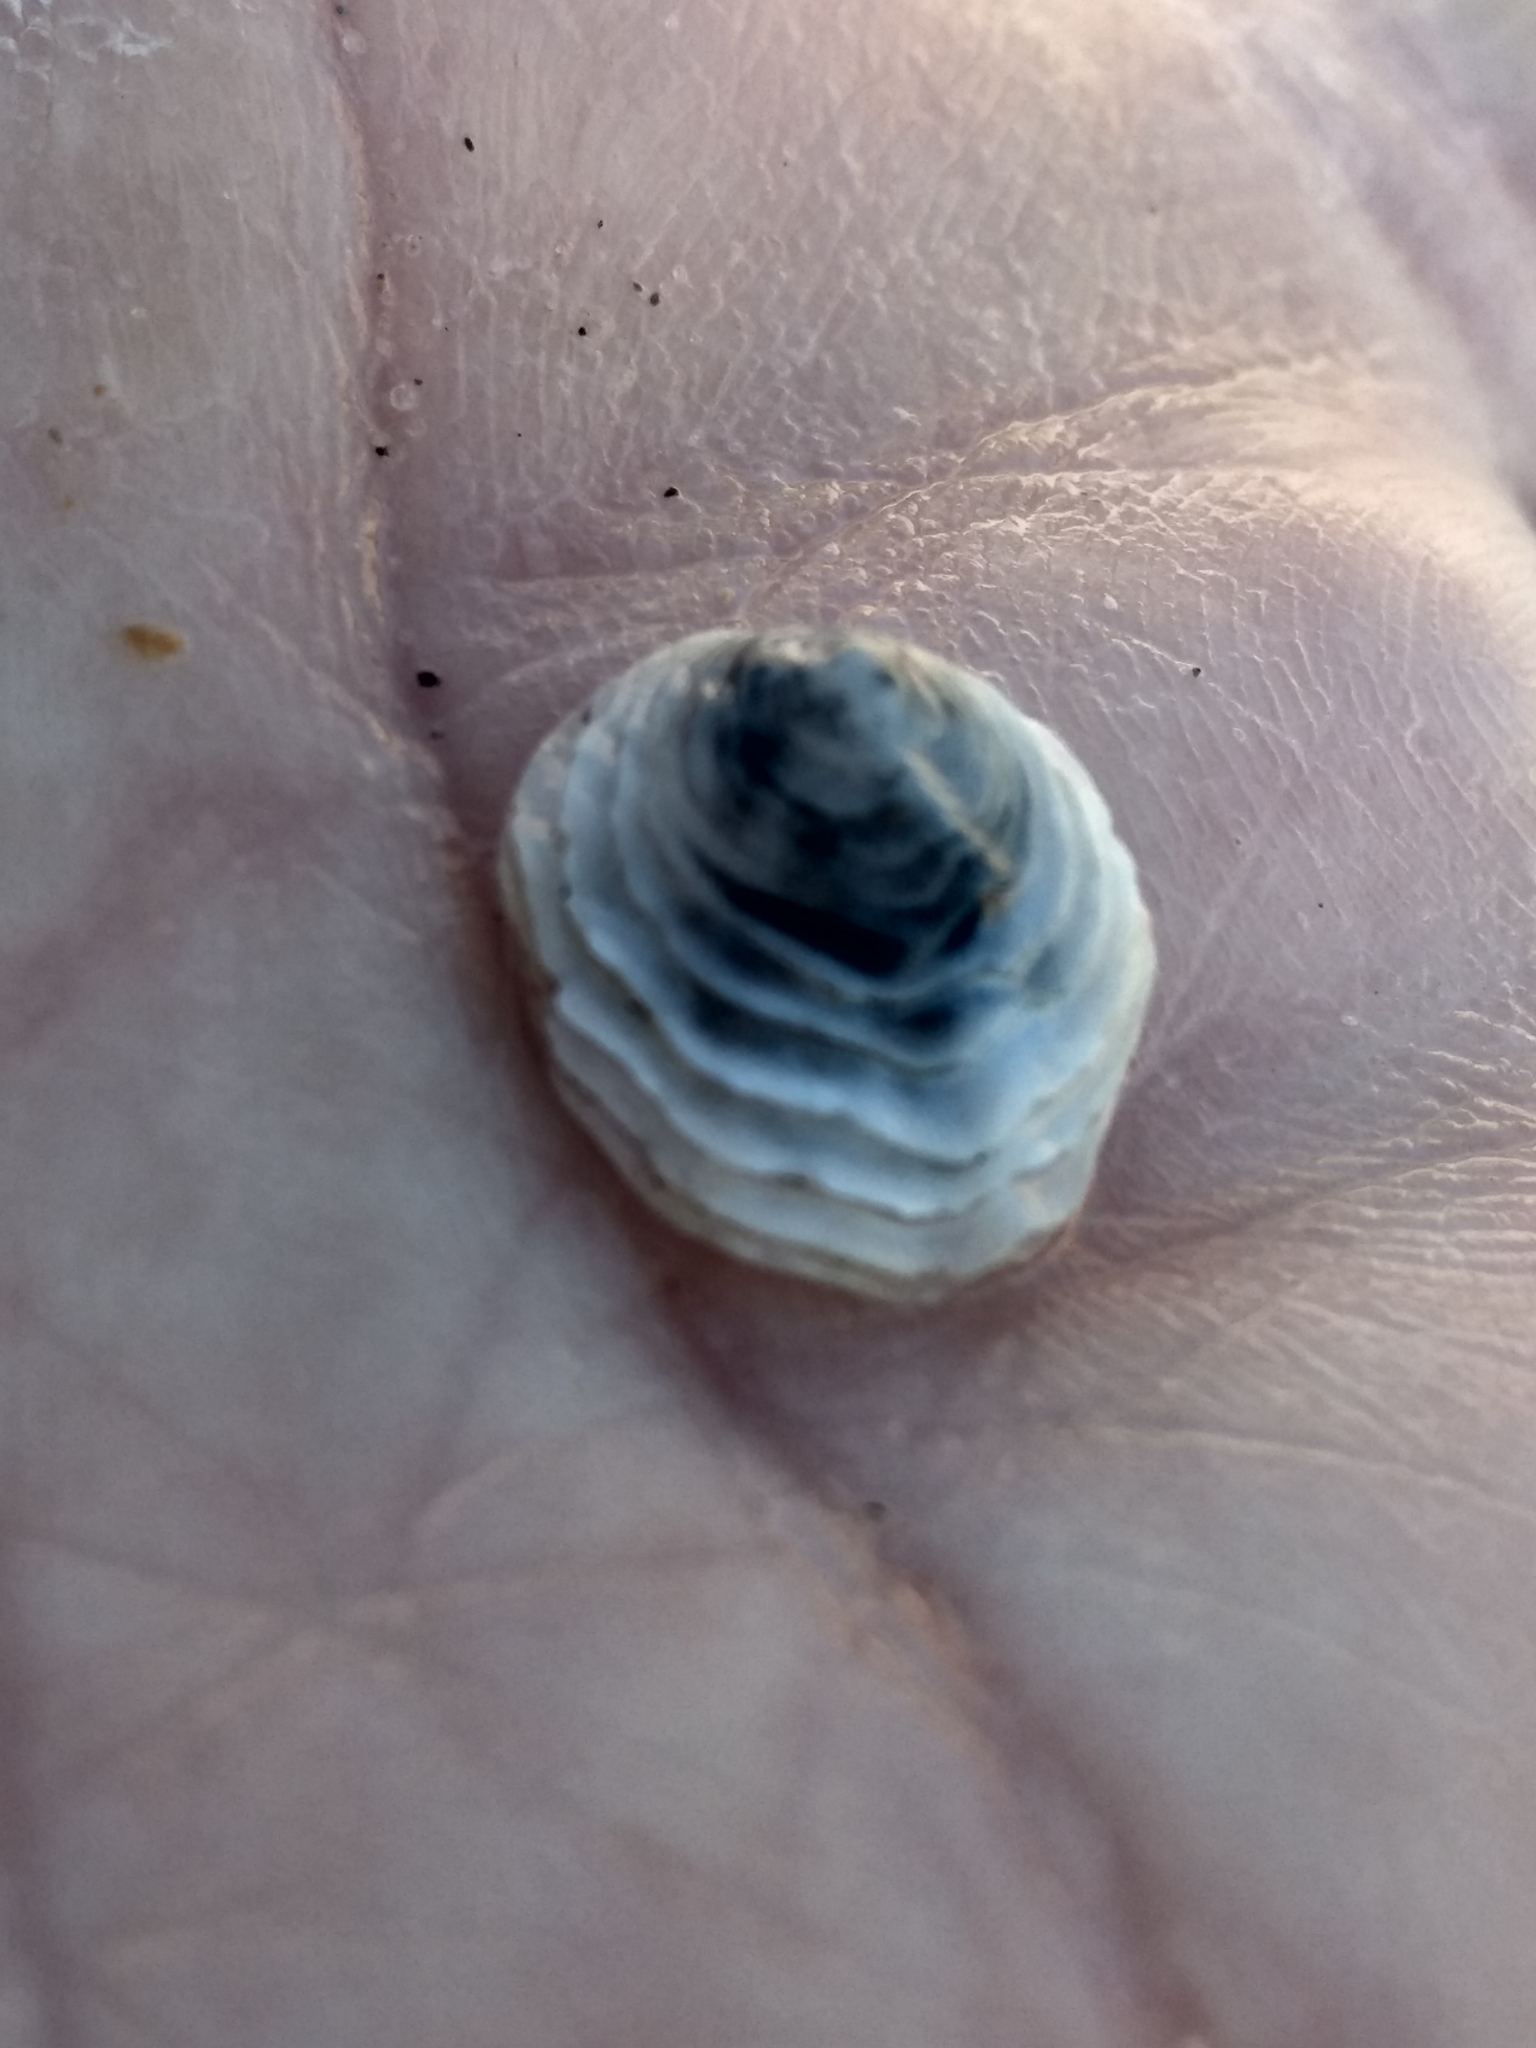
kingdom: Animalia
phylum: Mollusca
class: Gastropoda
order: Littorinimorpha
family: Hipponicidae
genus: Hipponix
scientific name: Hipponix panamensis
